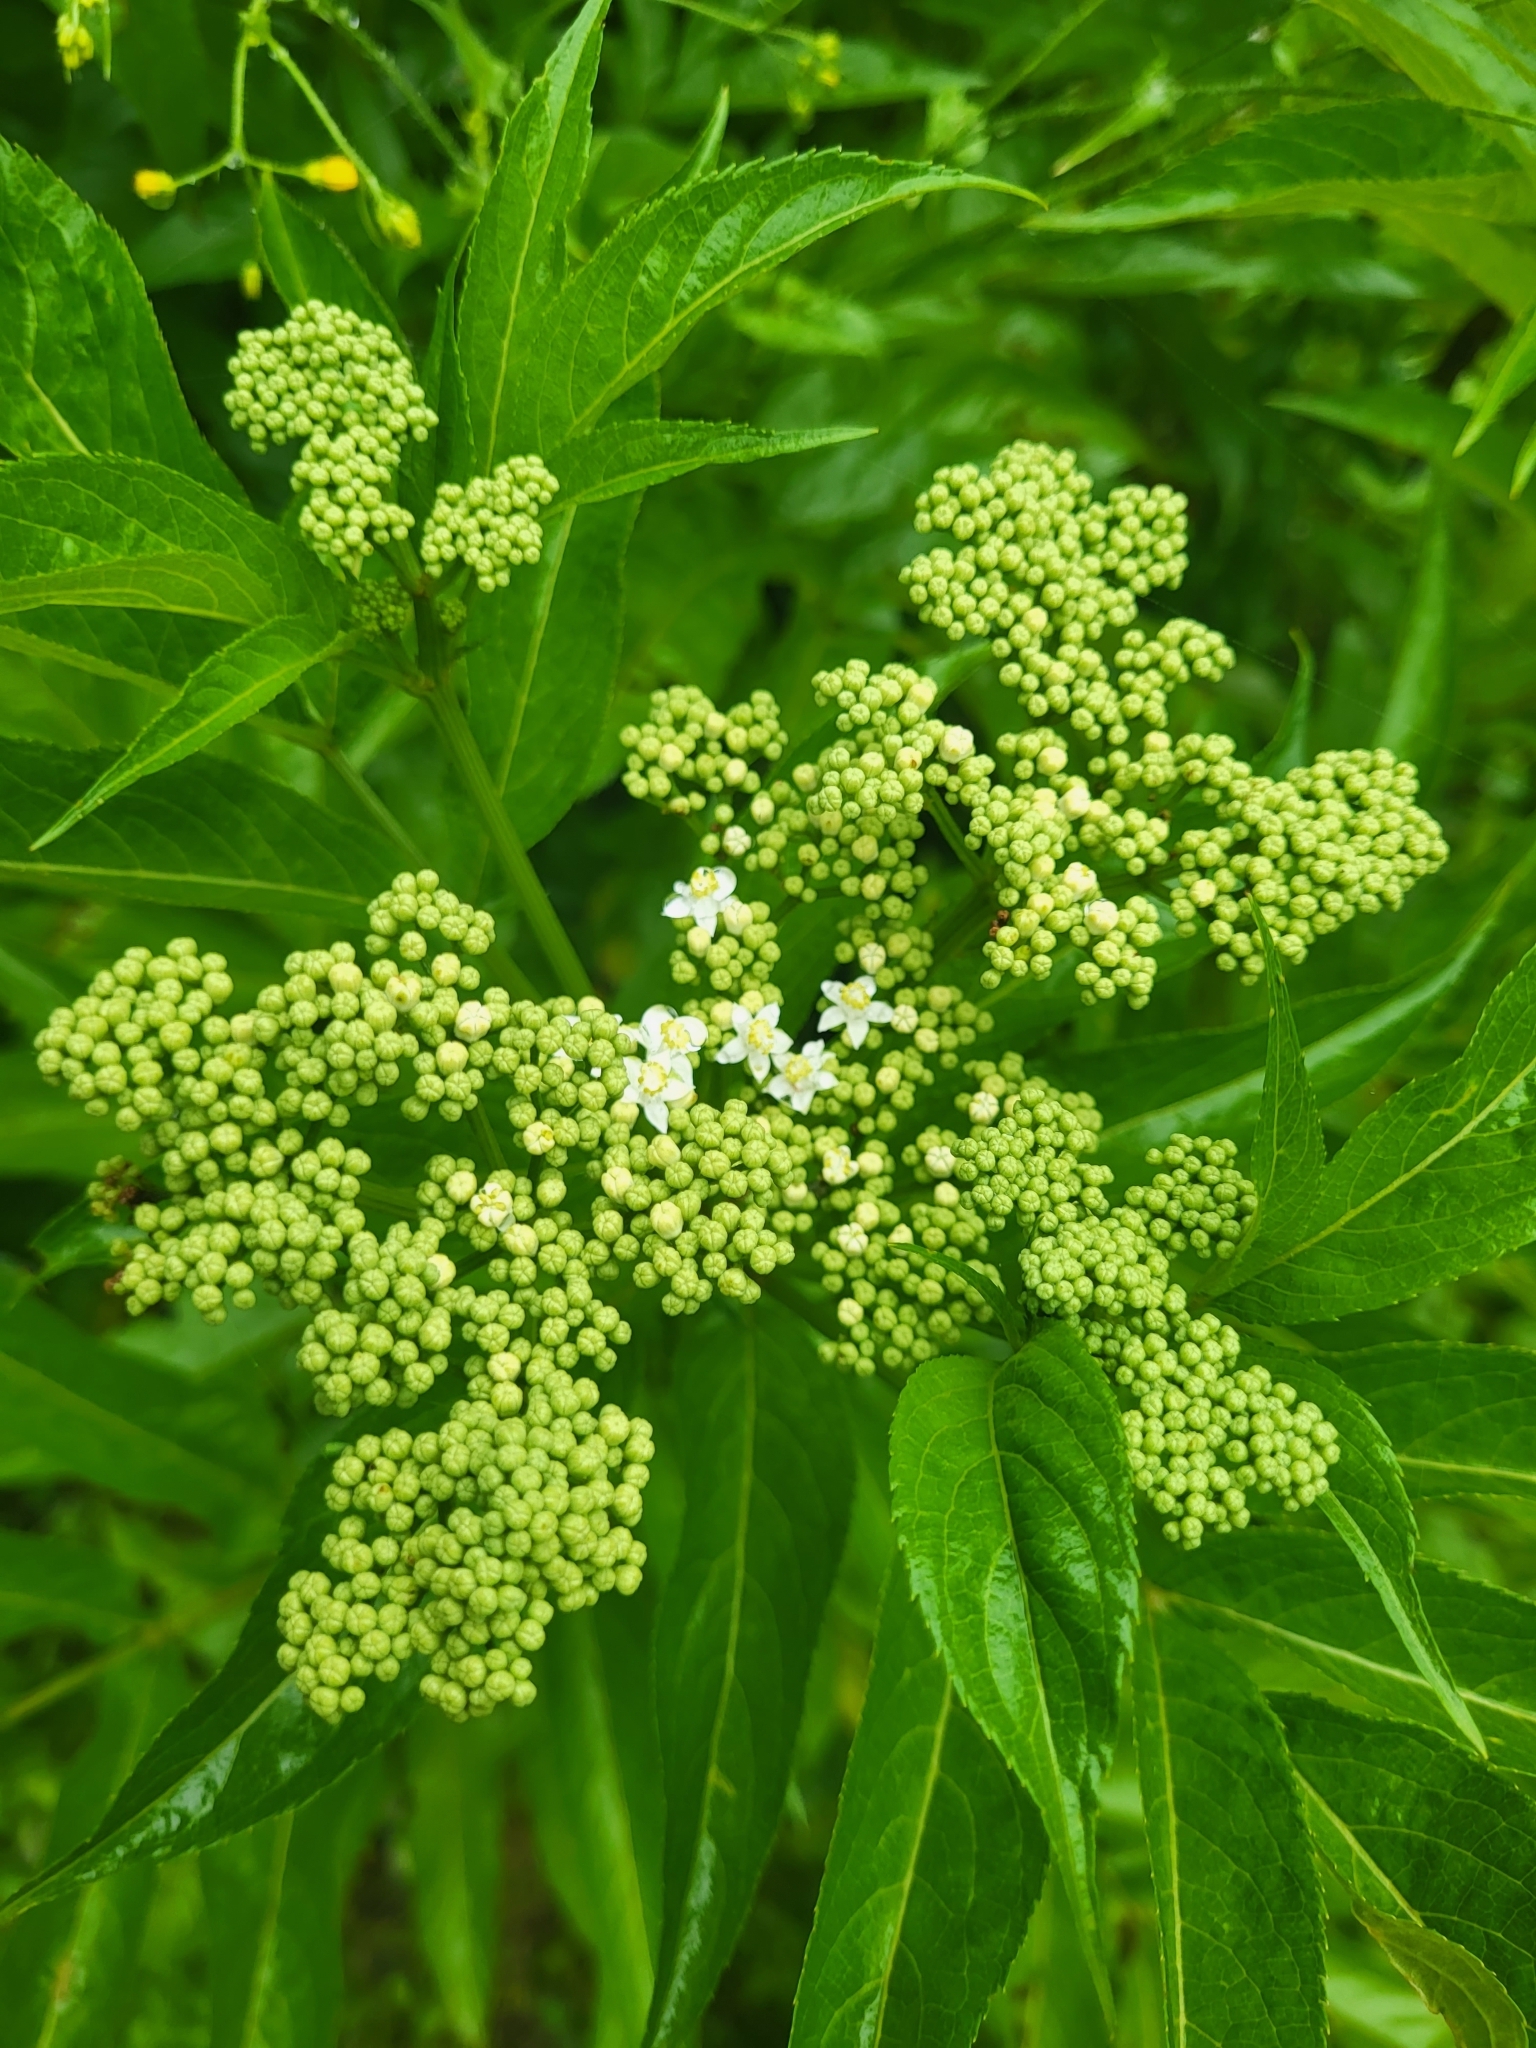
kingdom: Plantae
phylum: Tracheophyta
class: Magnoliopsida
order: Dipsacales
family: Viburnaceae
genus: Sambucus
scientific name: Sambucus ebulus
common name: Dwarf elder
